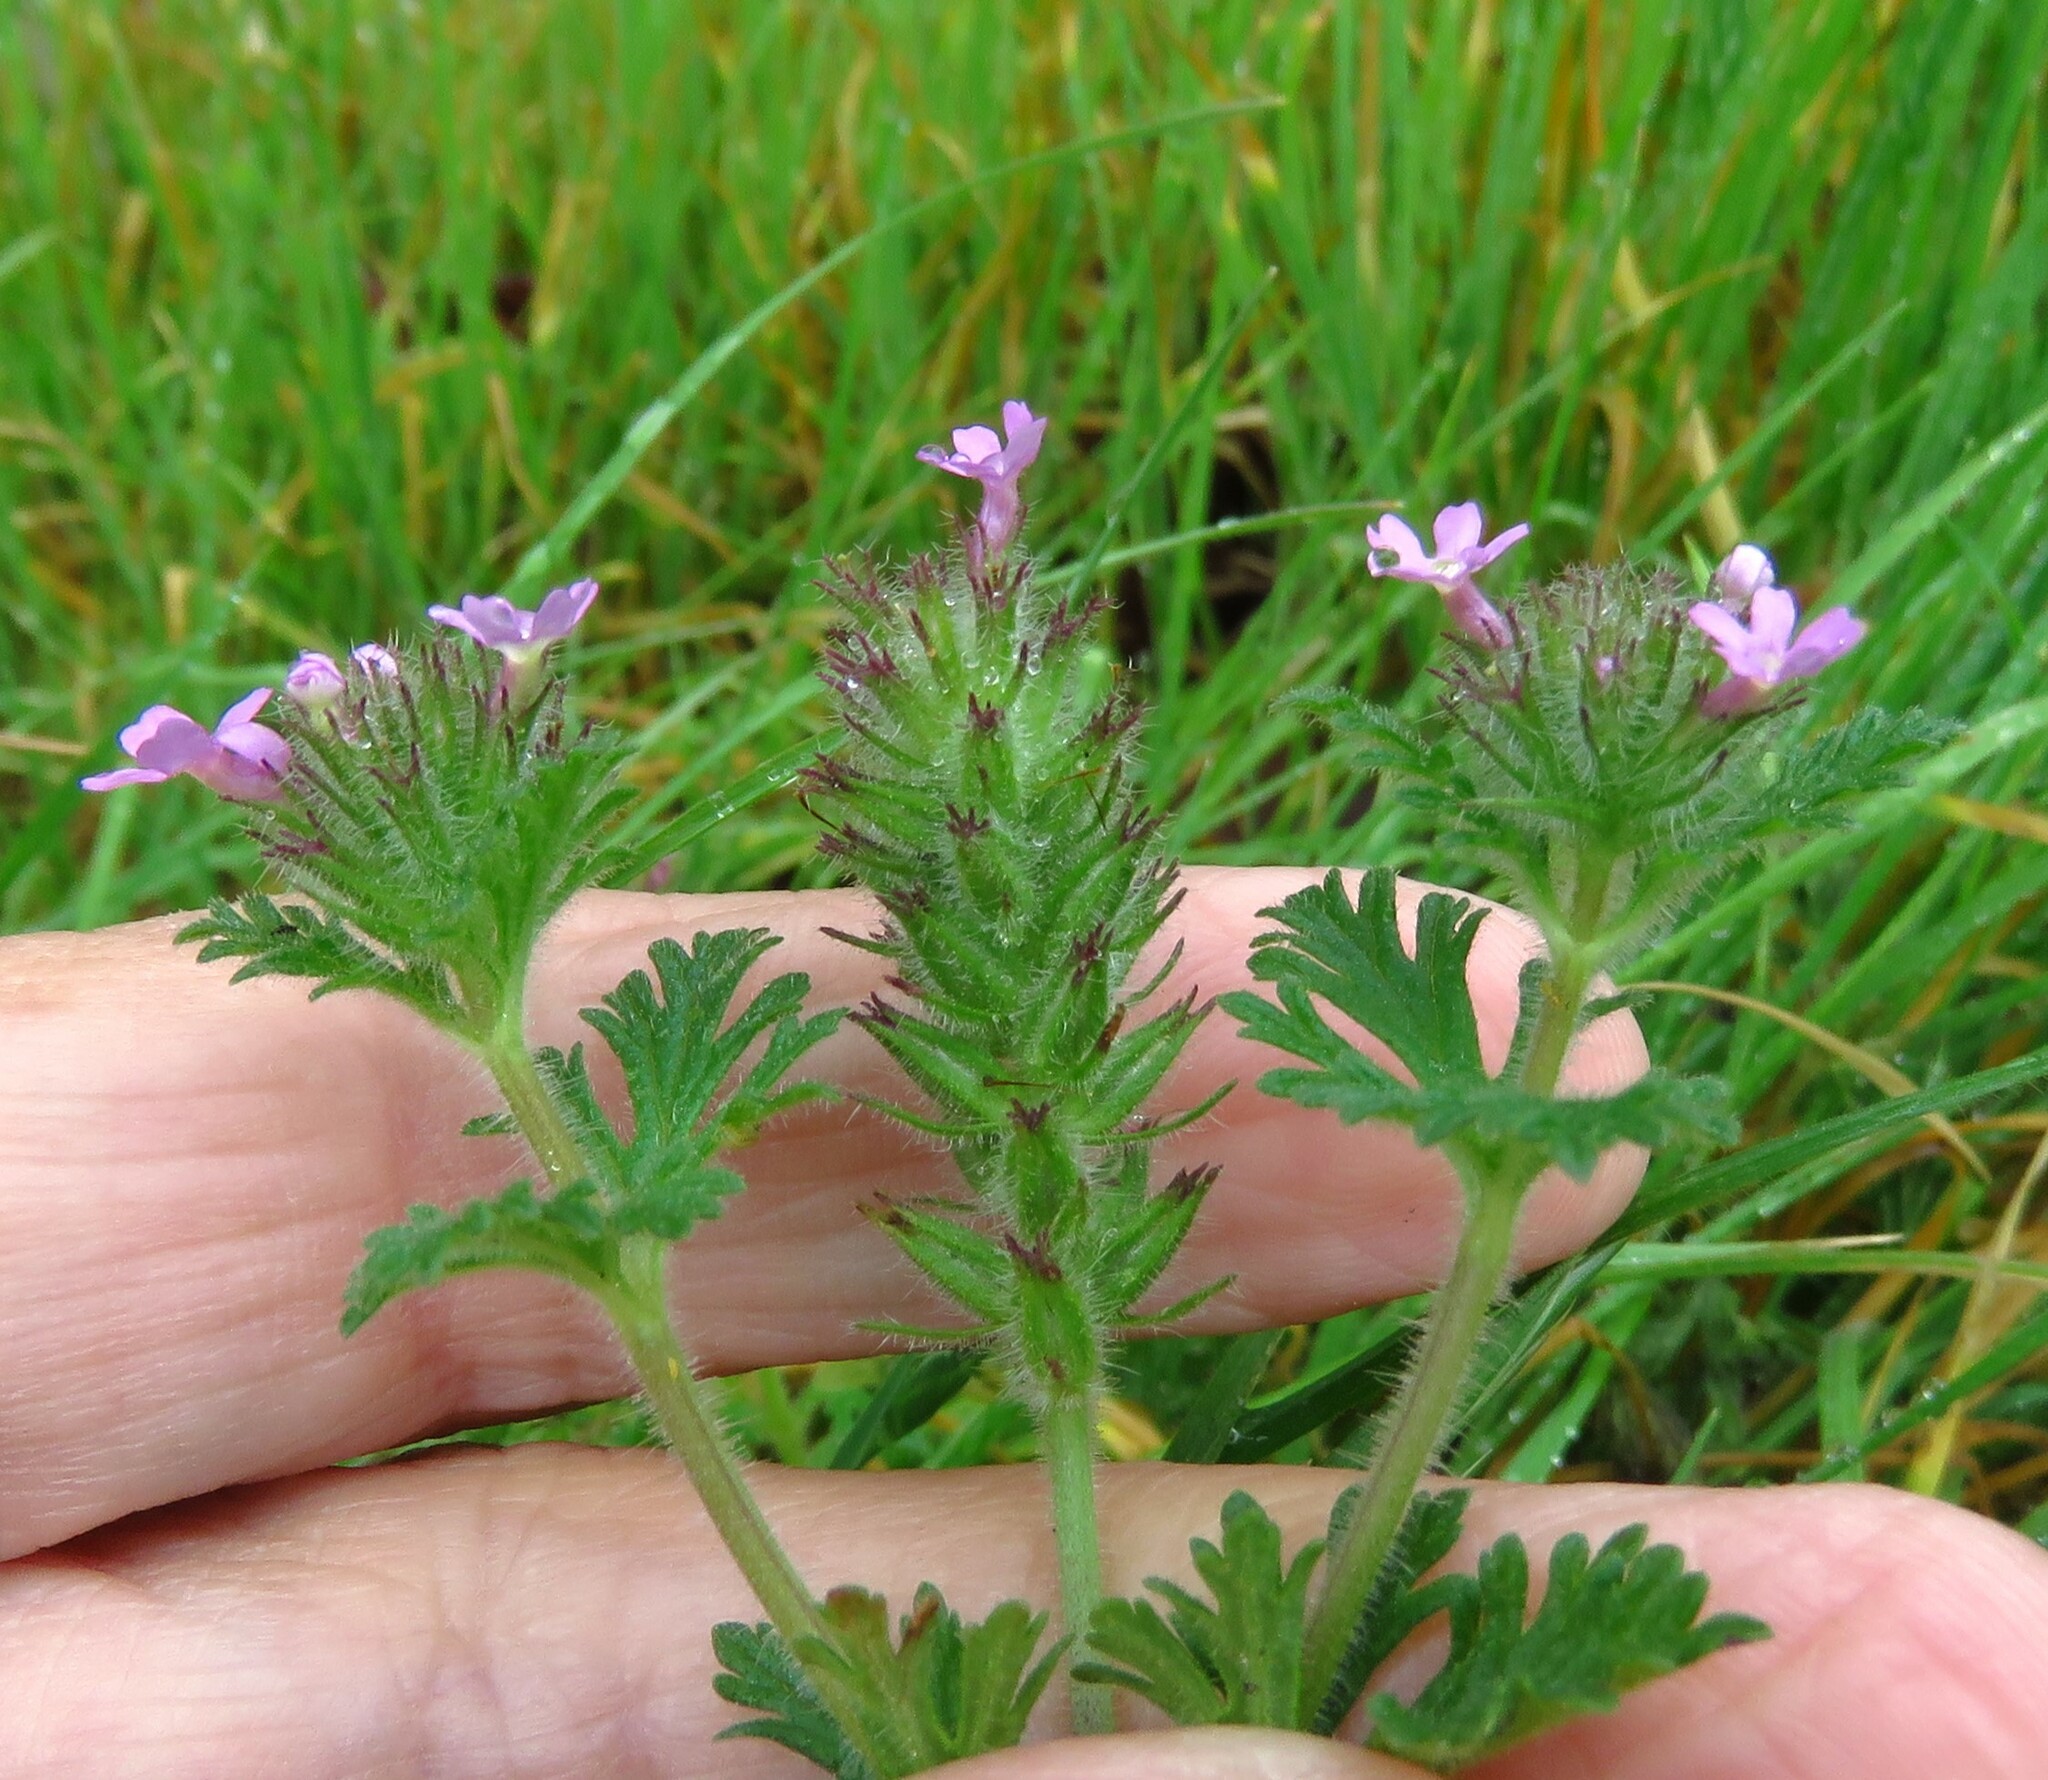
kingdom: Plantae
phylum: Tracheophyta
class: Magnoliopsida
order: Lamiales
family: Verbenaceae
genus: Verbena
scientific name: Verbena pumila
